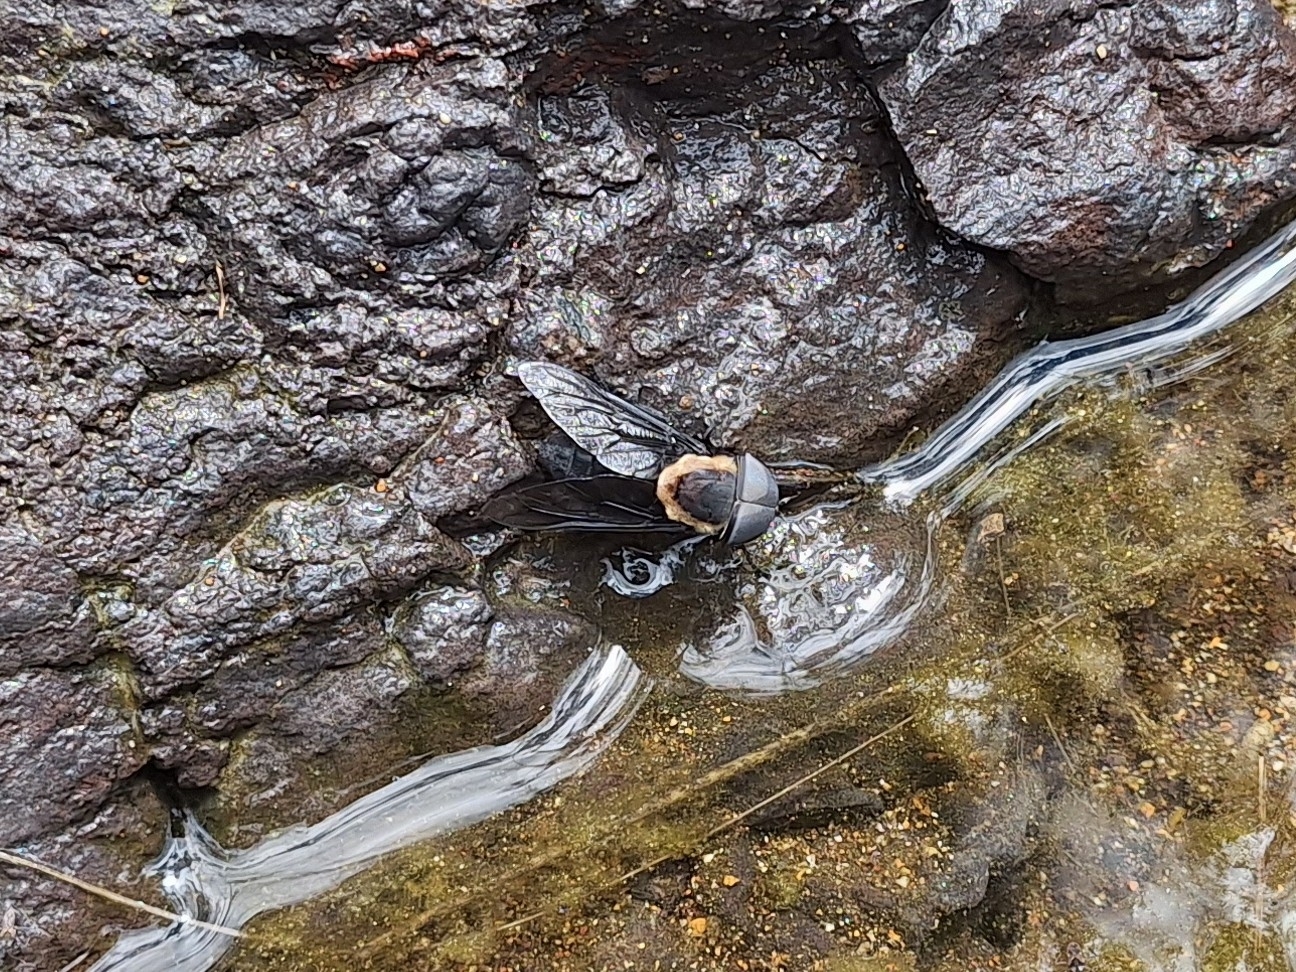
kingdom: Animalia
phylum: Arthropoda
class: Insecta
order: Diptera
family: Tabanidae
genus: Tabanus
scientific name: Tabanus punctifer
